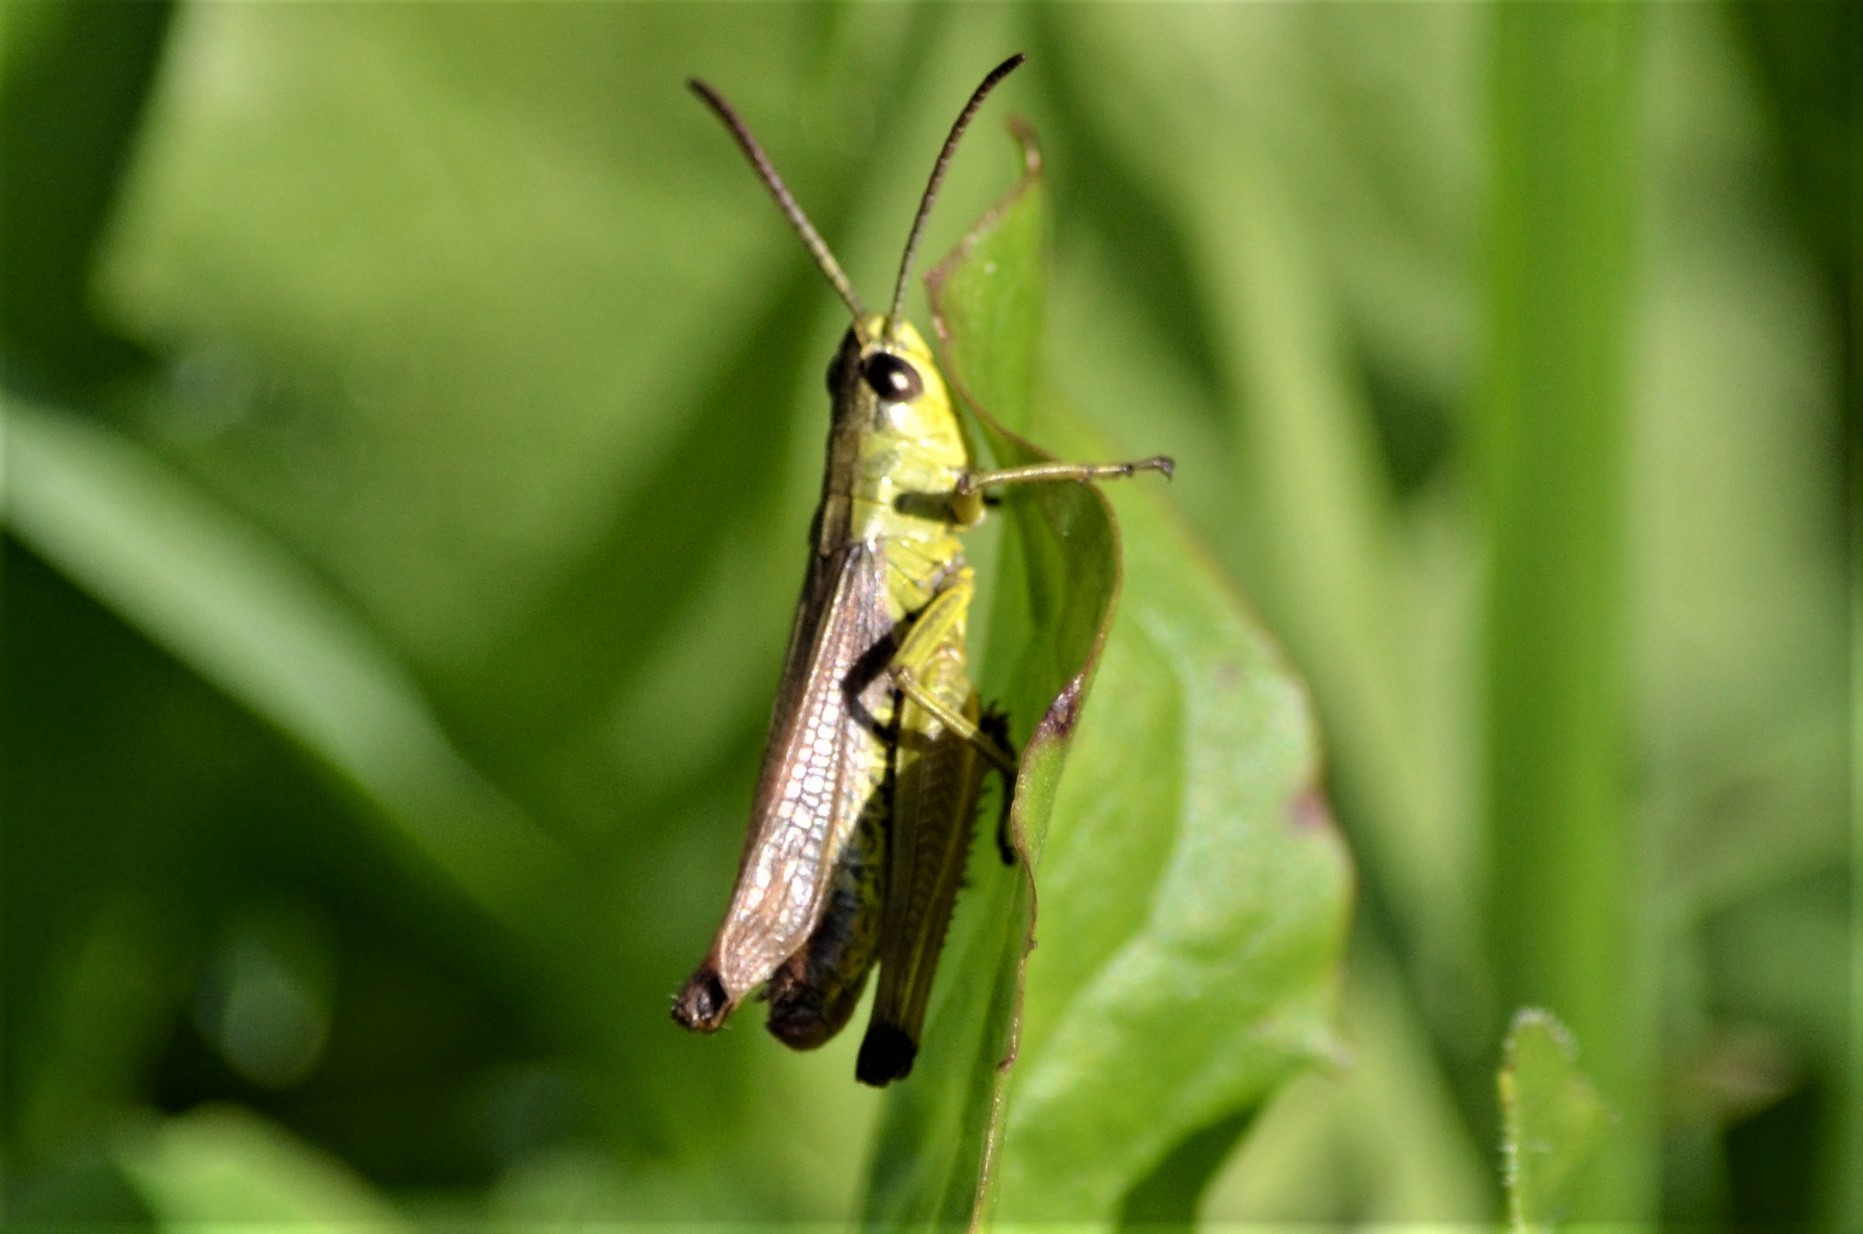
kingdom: Animalia
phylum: Arthropoda
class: Insecta
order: Orthoptera
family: Acrididae
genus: Pseudochorthippus
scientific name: Pseudochorthippus parallelus
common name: Meadow grasshopper
